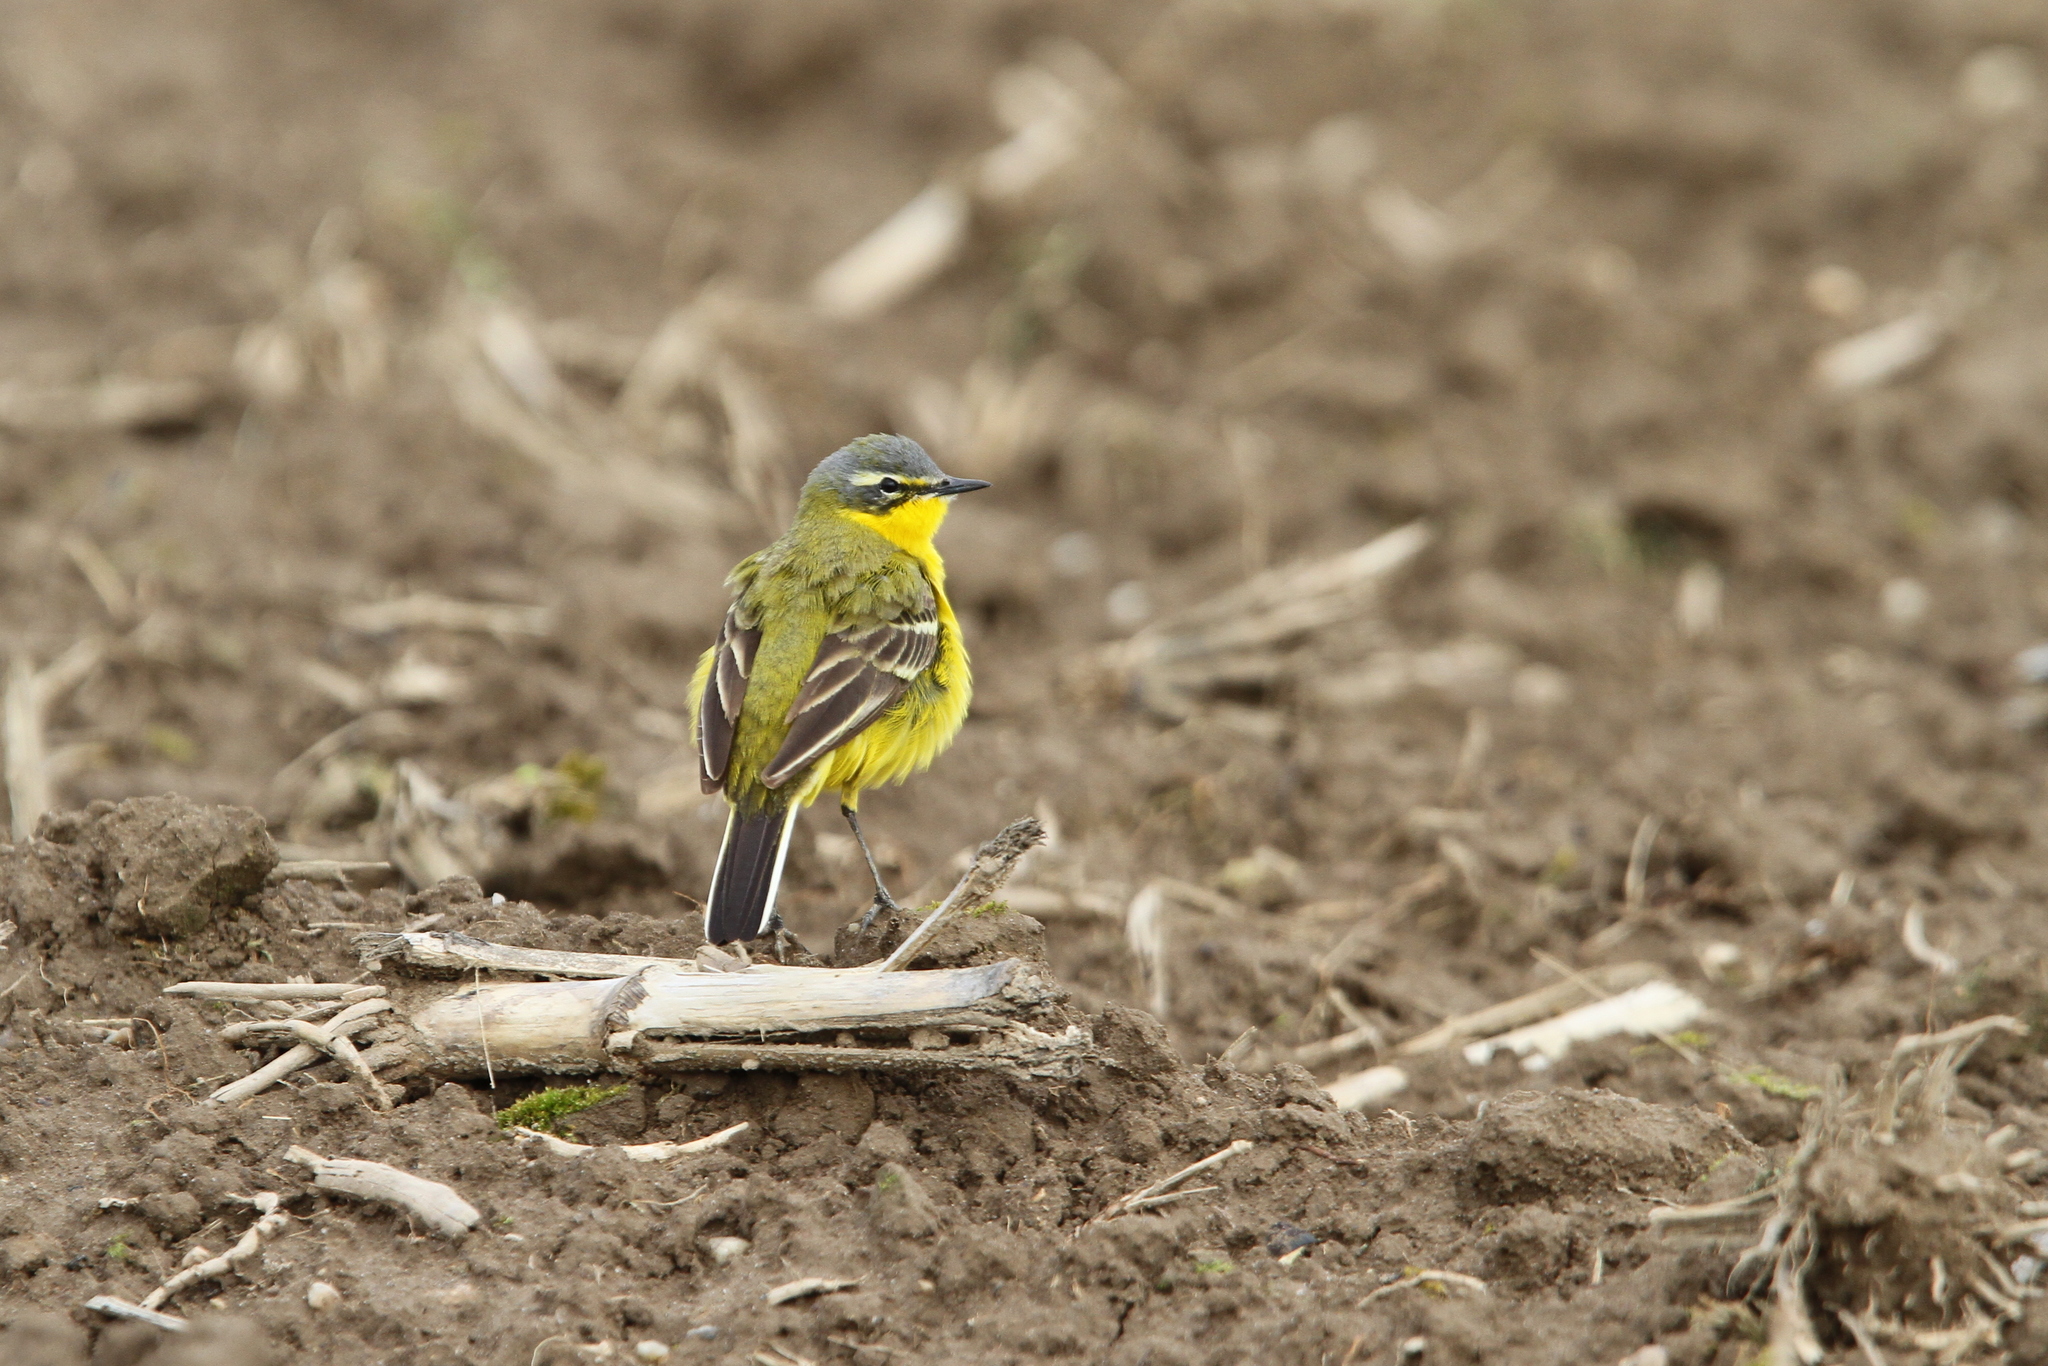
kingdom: Animalia
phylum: Chordata
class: Aves
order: Passeriformes
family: Motacillidae
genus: Motacilla
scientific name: Motacilla flava
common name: Western yellow wagtail
